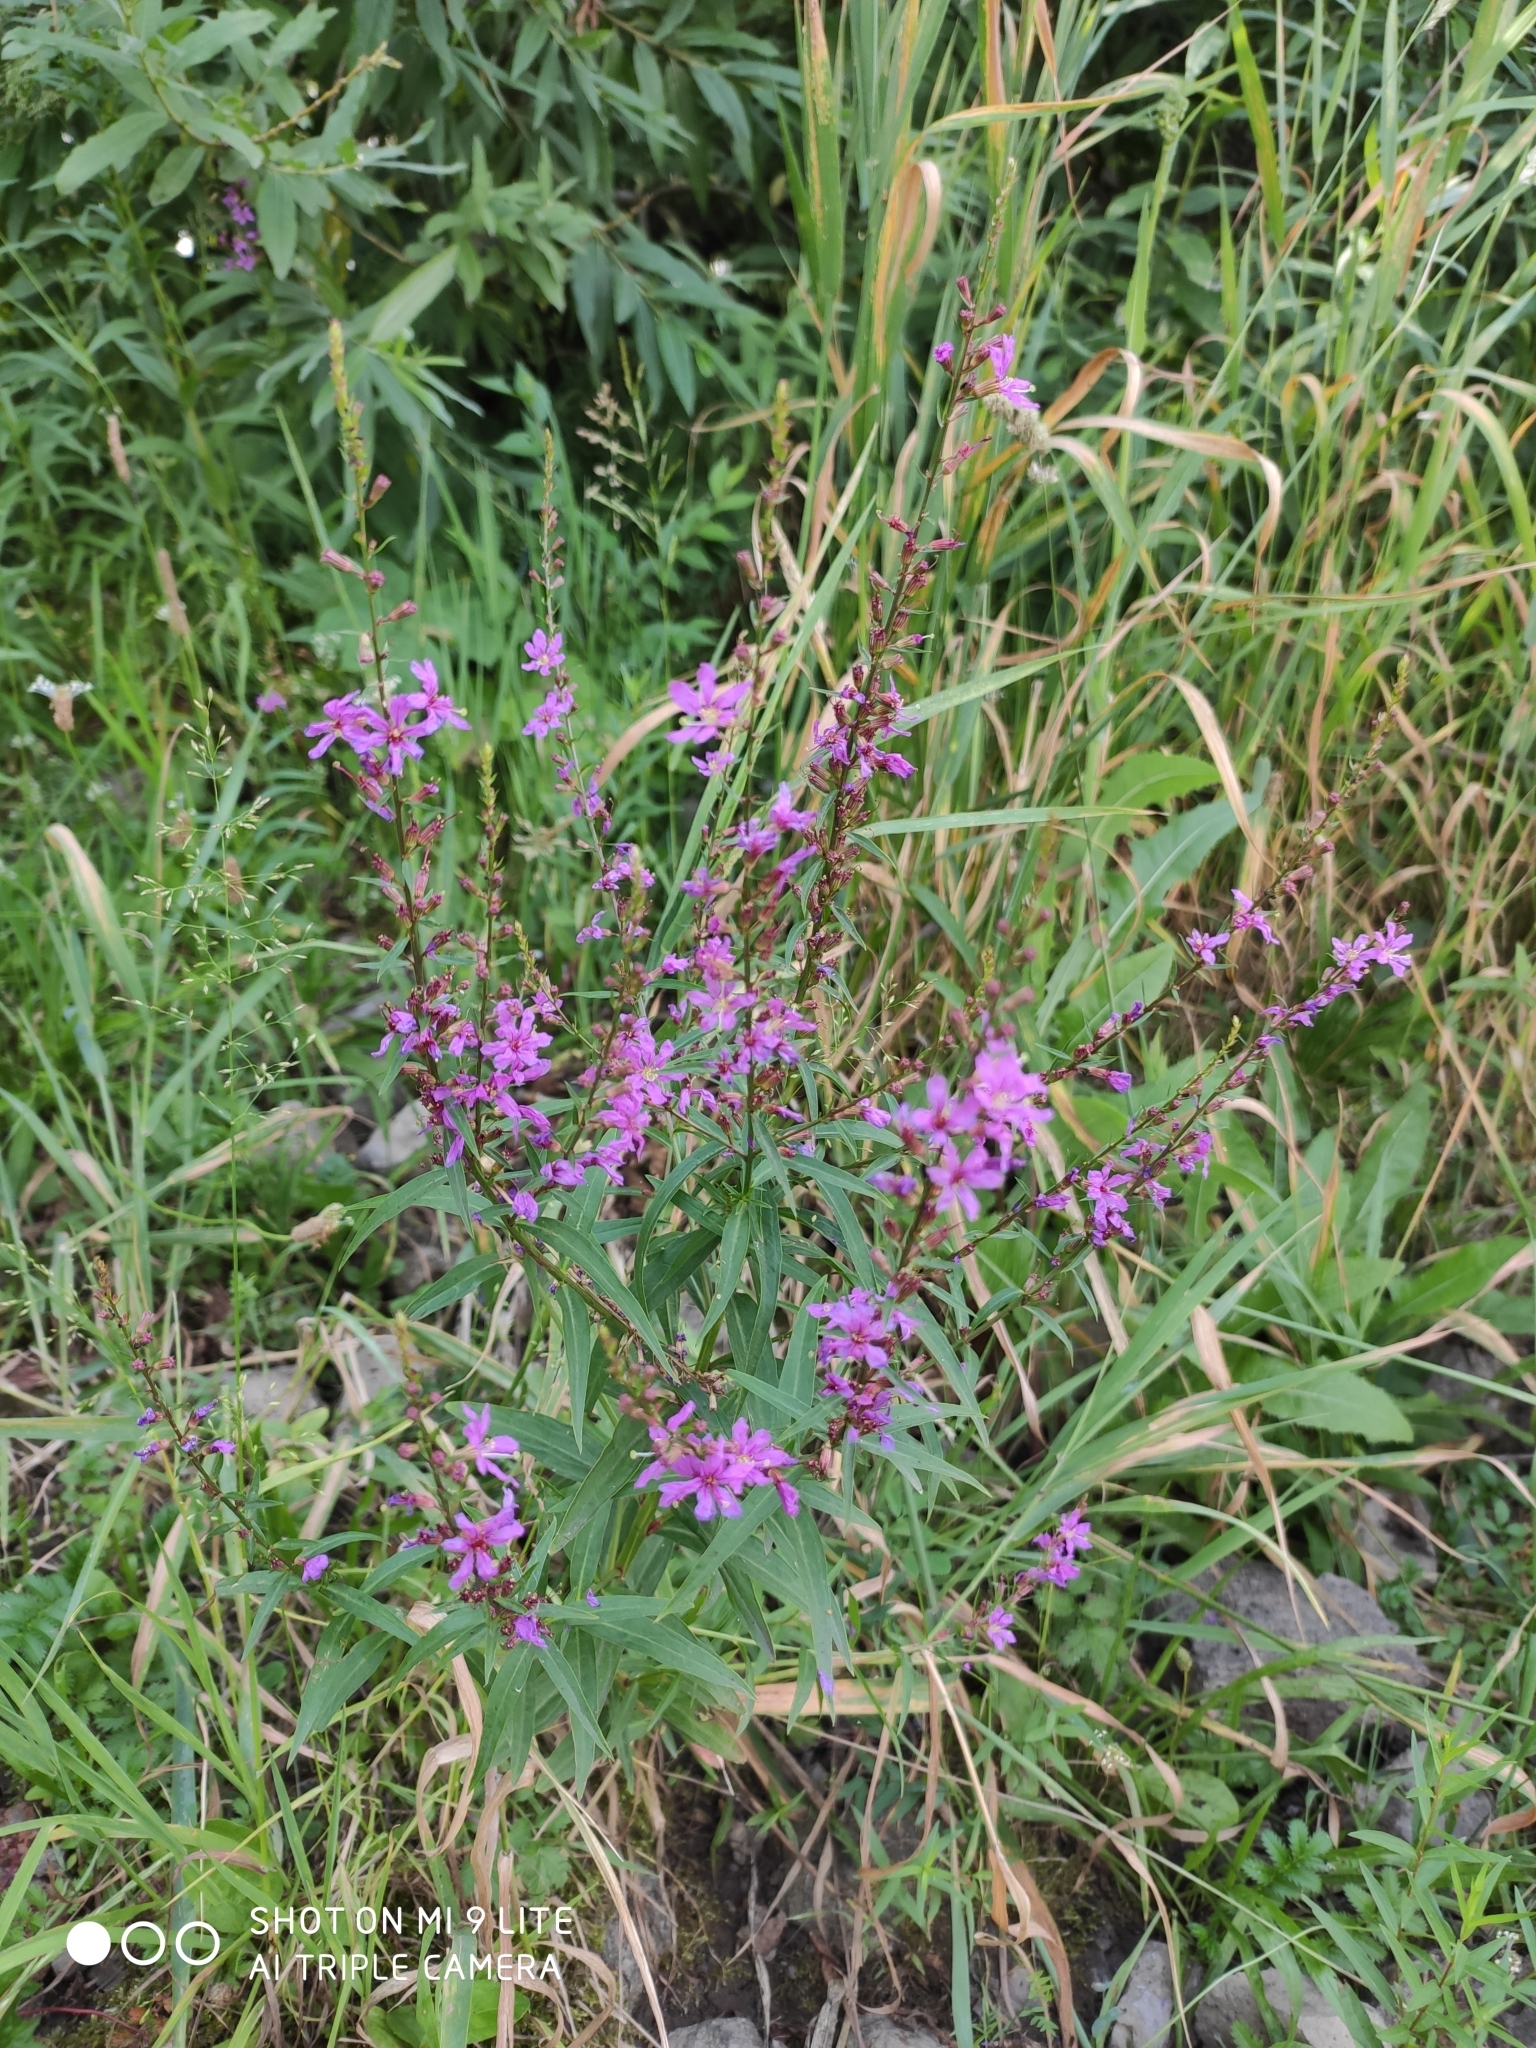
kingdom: Plantae
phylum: Tracheophyta
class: Magnoliopsida
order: Myrtales
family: Lythraceae
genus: Lythrum
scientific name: Lythrum salicaria
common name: Purple loosestrife
